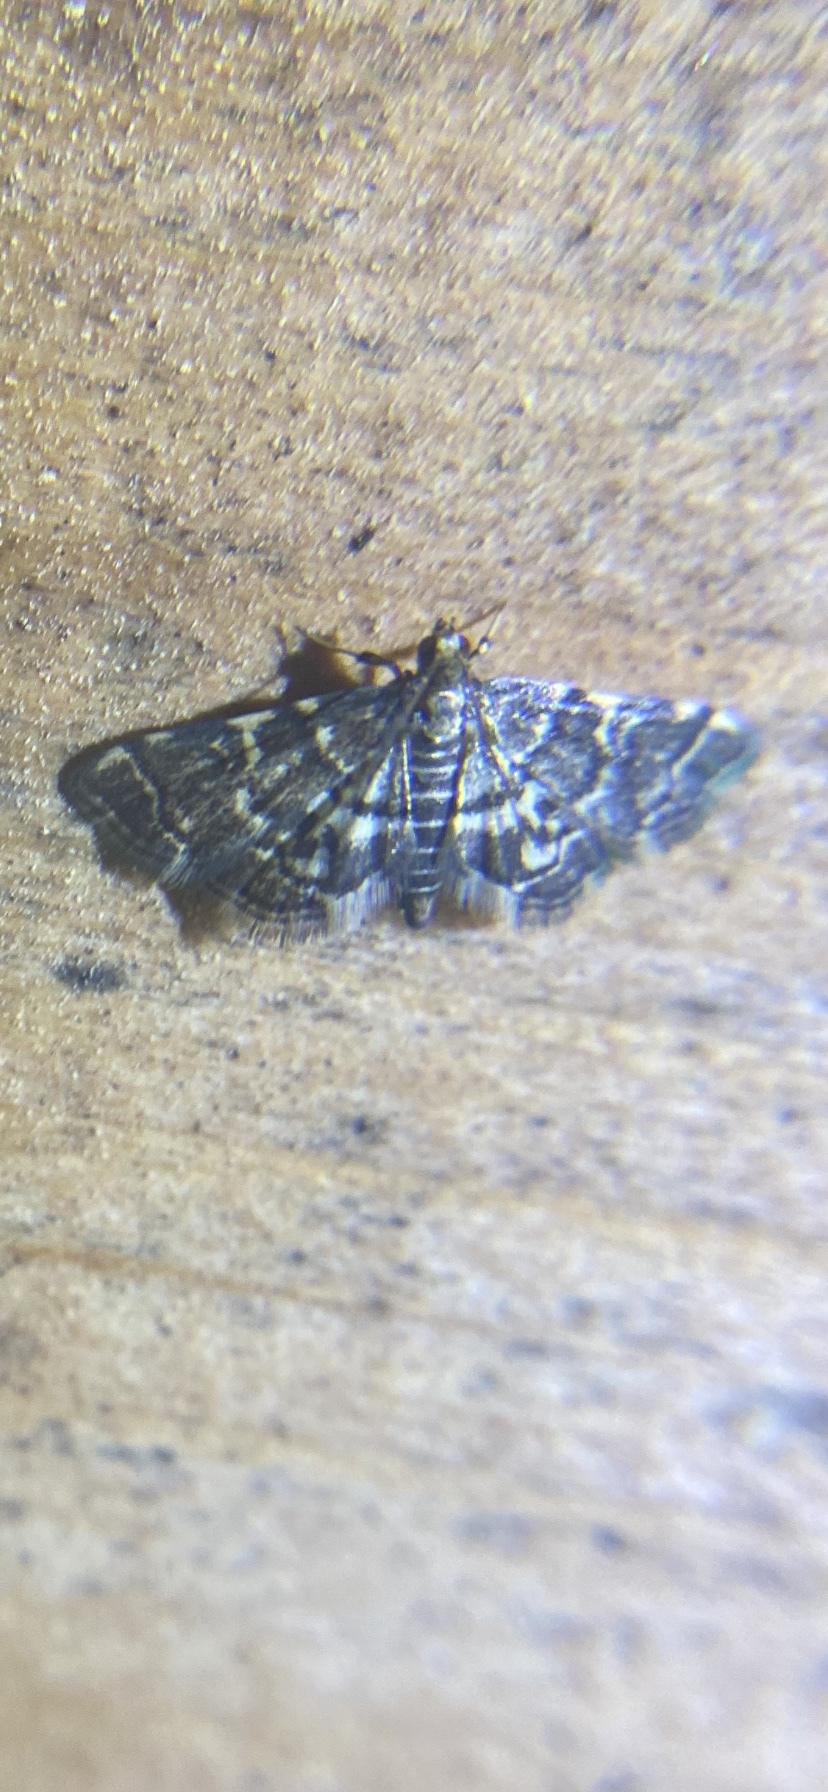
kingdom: Animalia
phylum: Arthropoda
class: Insecta
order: Lepidoptera
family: Crambidae
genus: Anageshna
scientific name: Anageshna primordialis
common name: Yellow-spotted webworm moth
